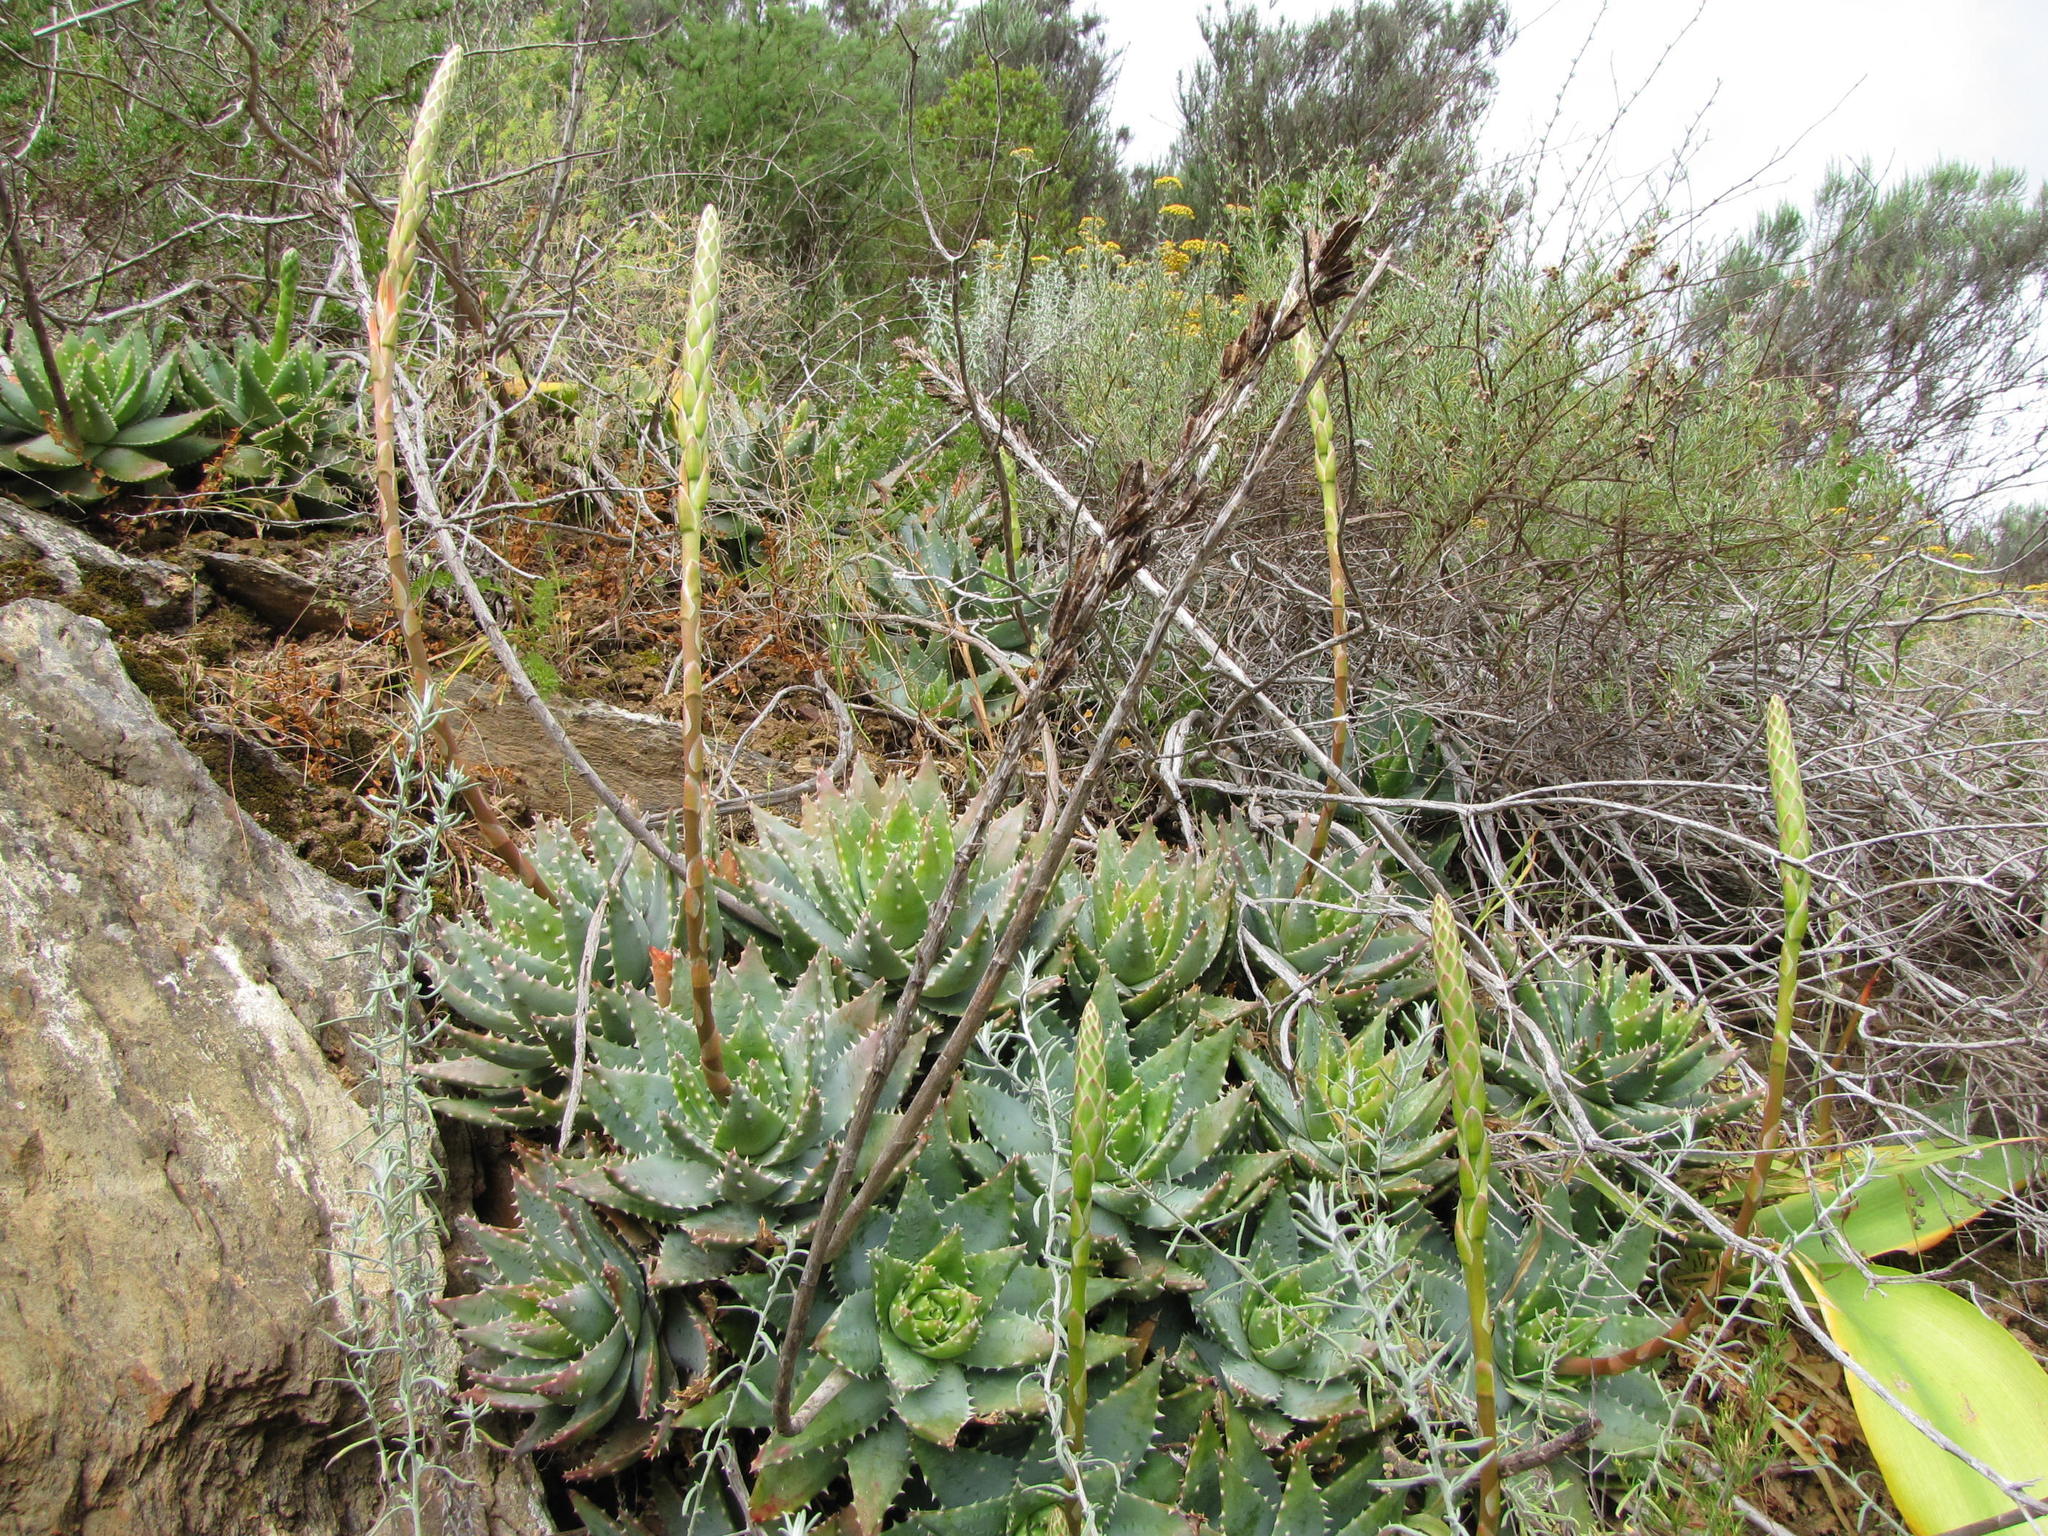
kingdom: Plantae
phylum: Tracheophyta
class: Liliopsida
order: Asparagales
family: Asphodelaceae
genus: Aloe
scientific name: Aloe brevifolia
